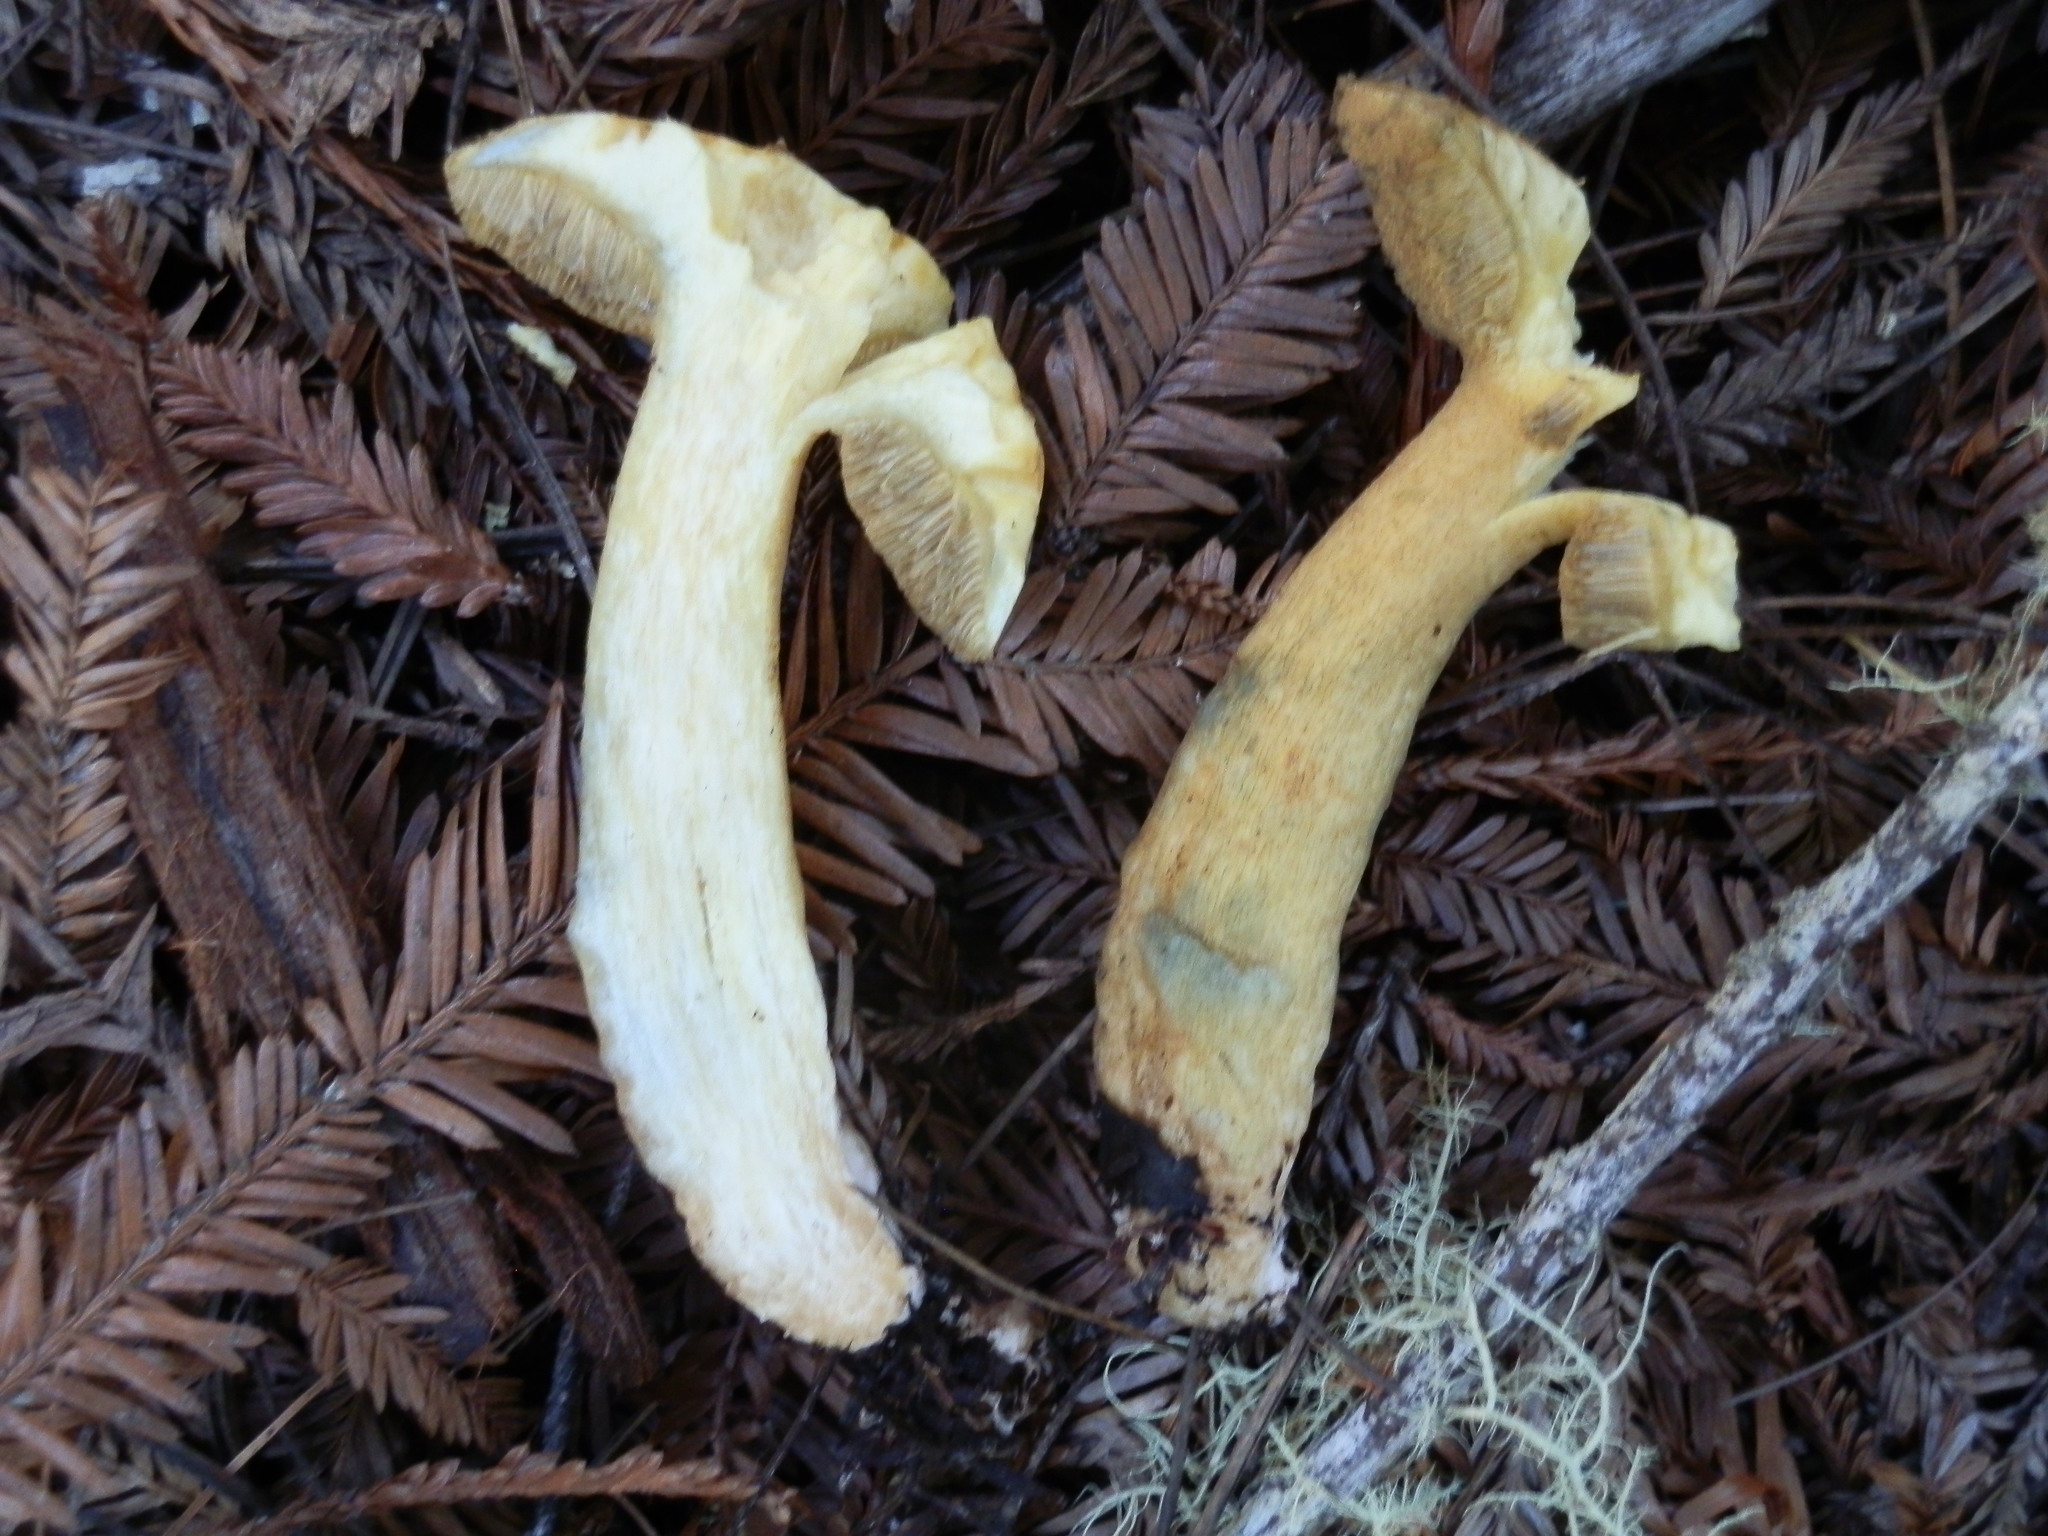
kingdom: Fungi
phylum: Basidiomycota
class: Agaricomycetes
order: Boletales
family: Suillaceae
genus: Suillus
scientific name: Suillus tomentosus
